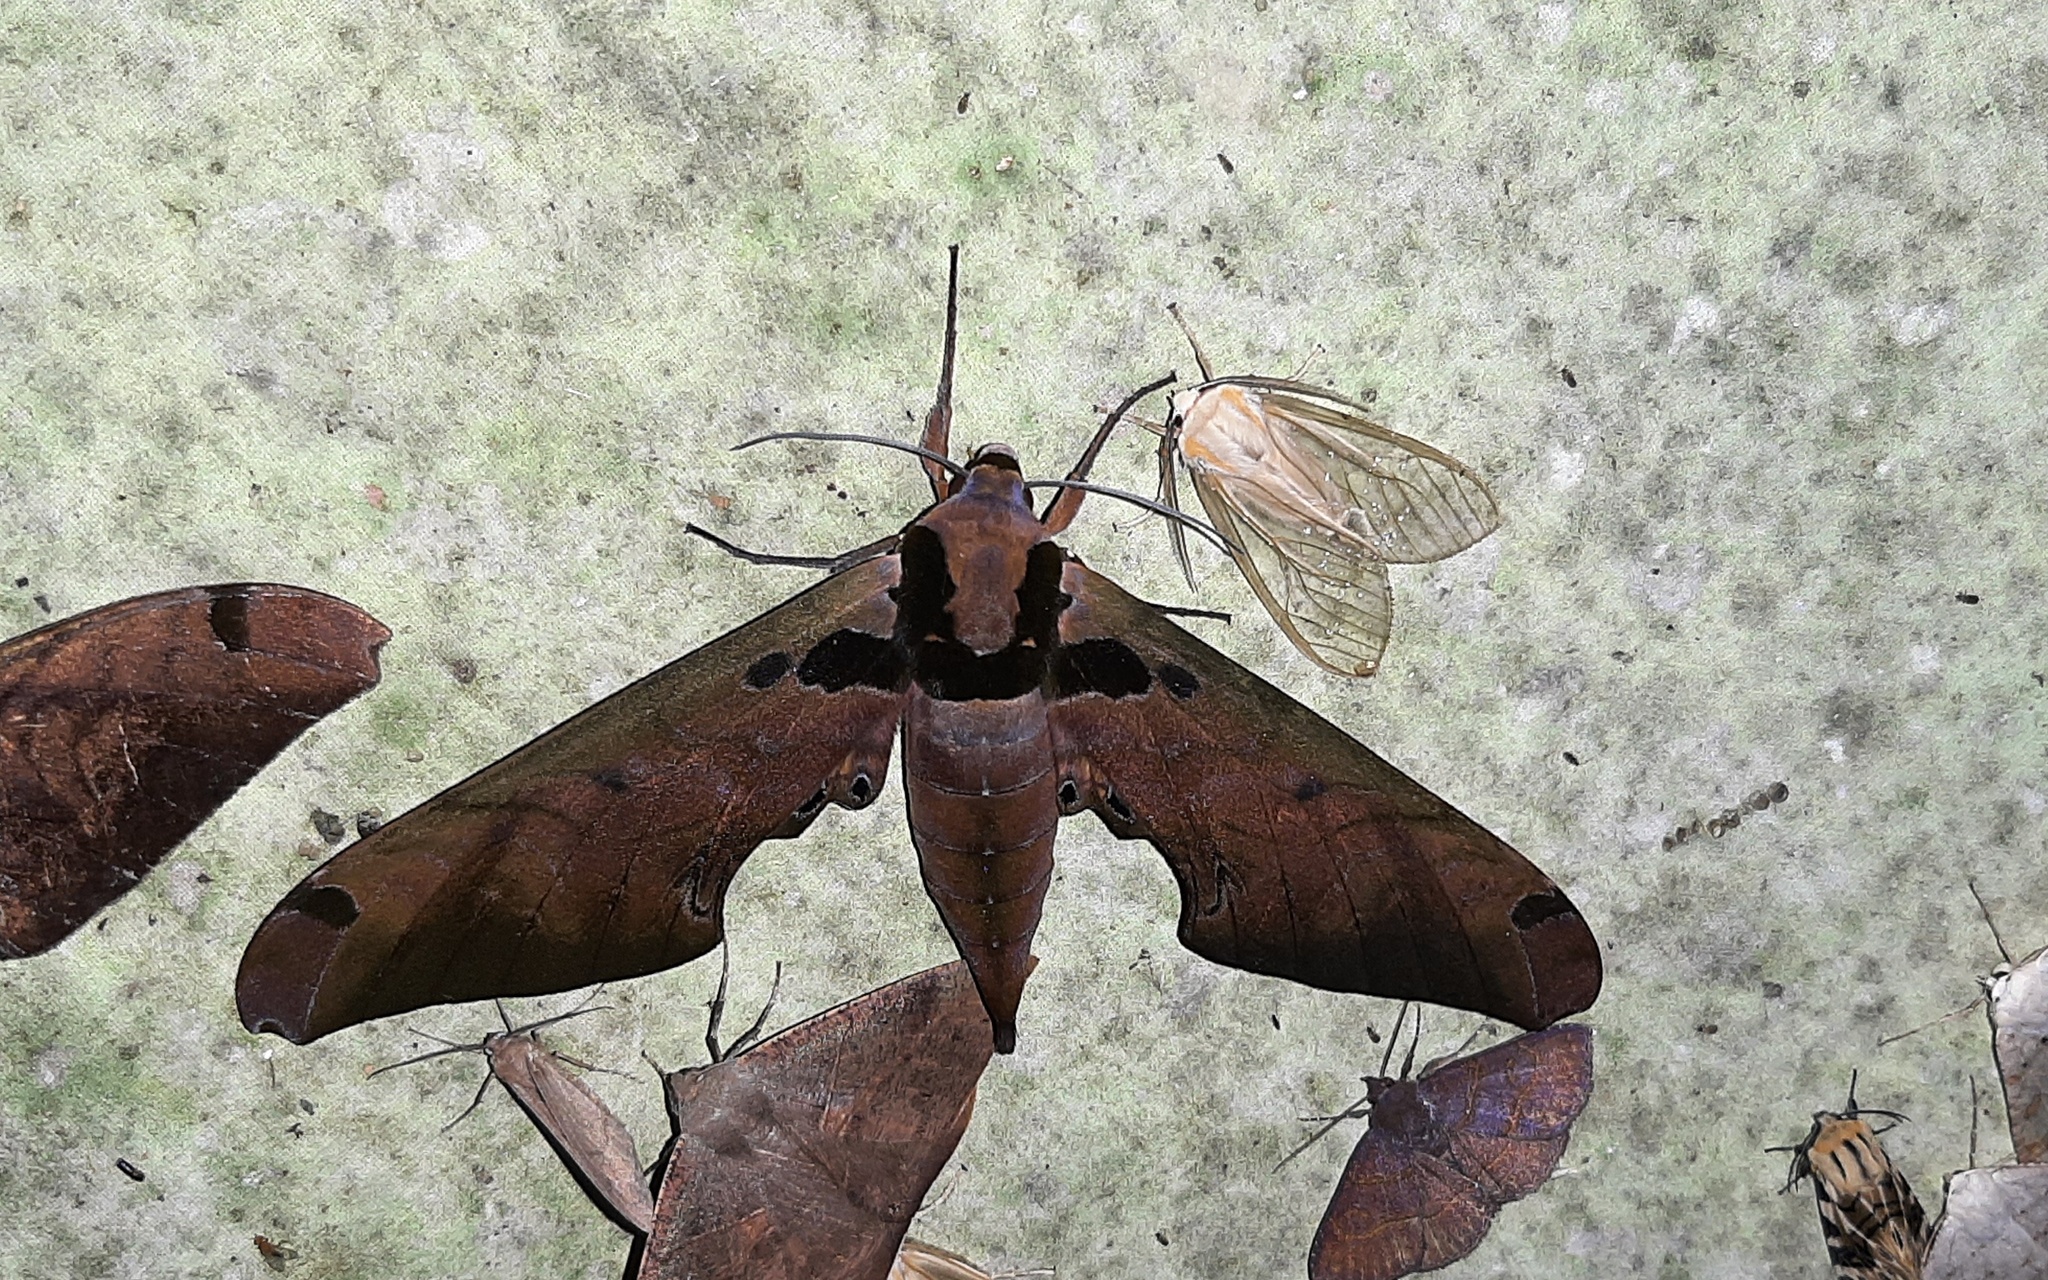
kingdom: Animalia
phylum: Arthropoda
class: Insecta
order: Lepidoptera
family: Sphingidae
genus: Adhemarius
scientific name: Adhemarius sexoculata
